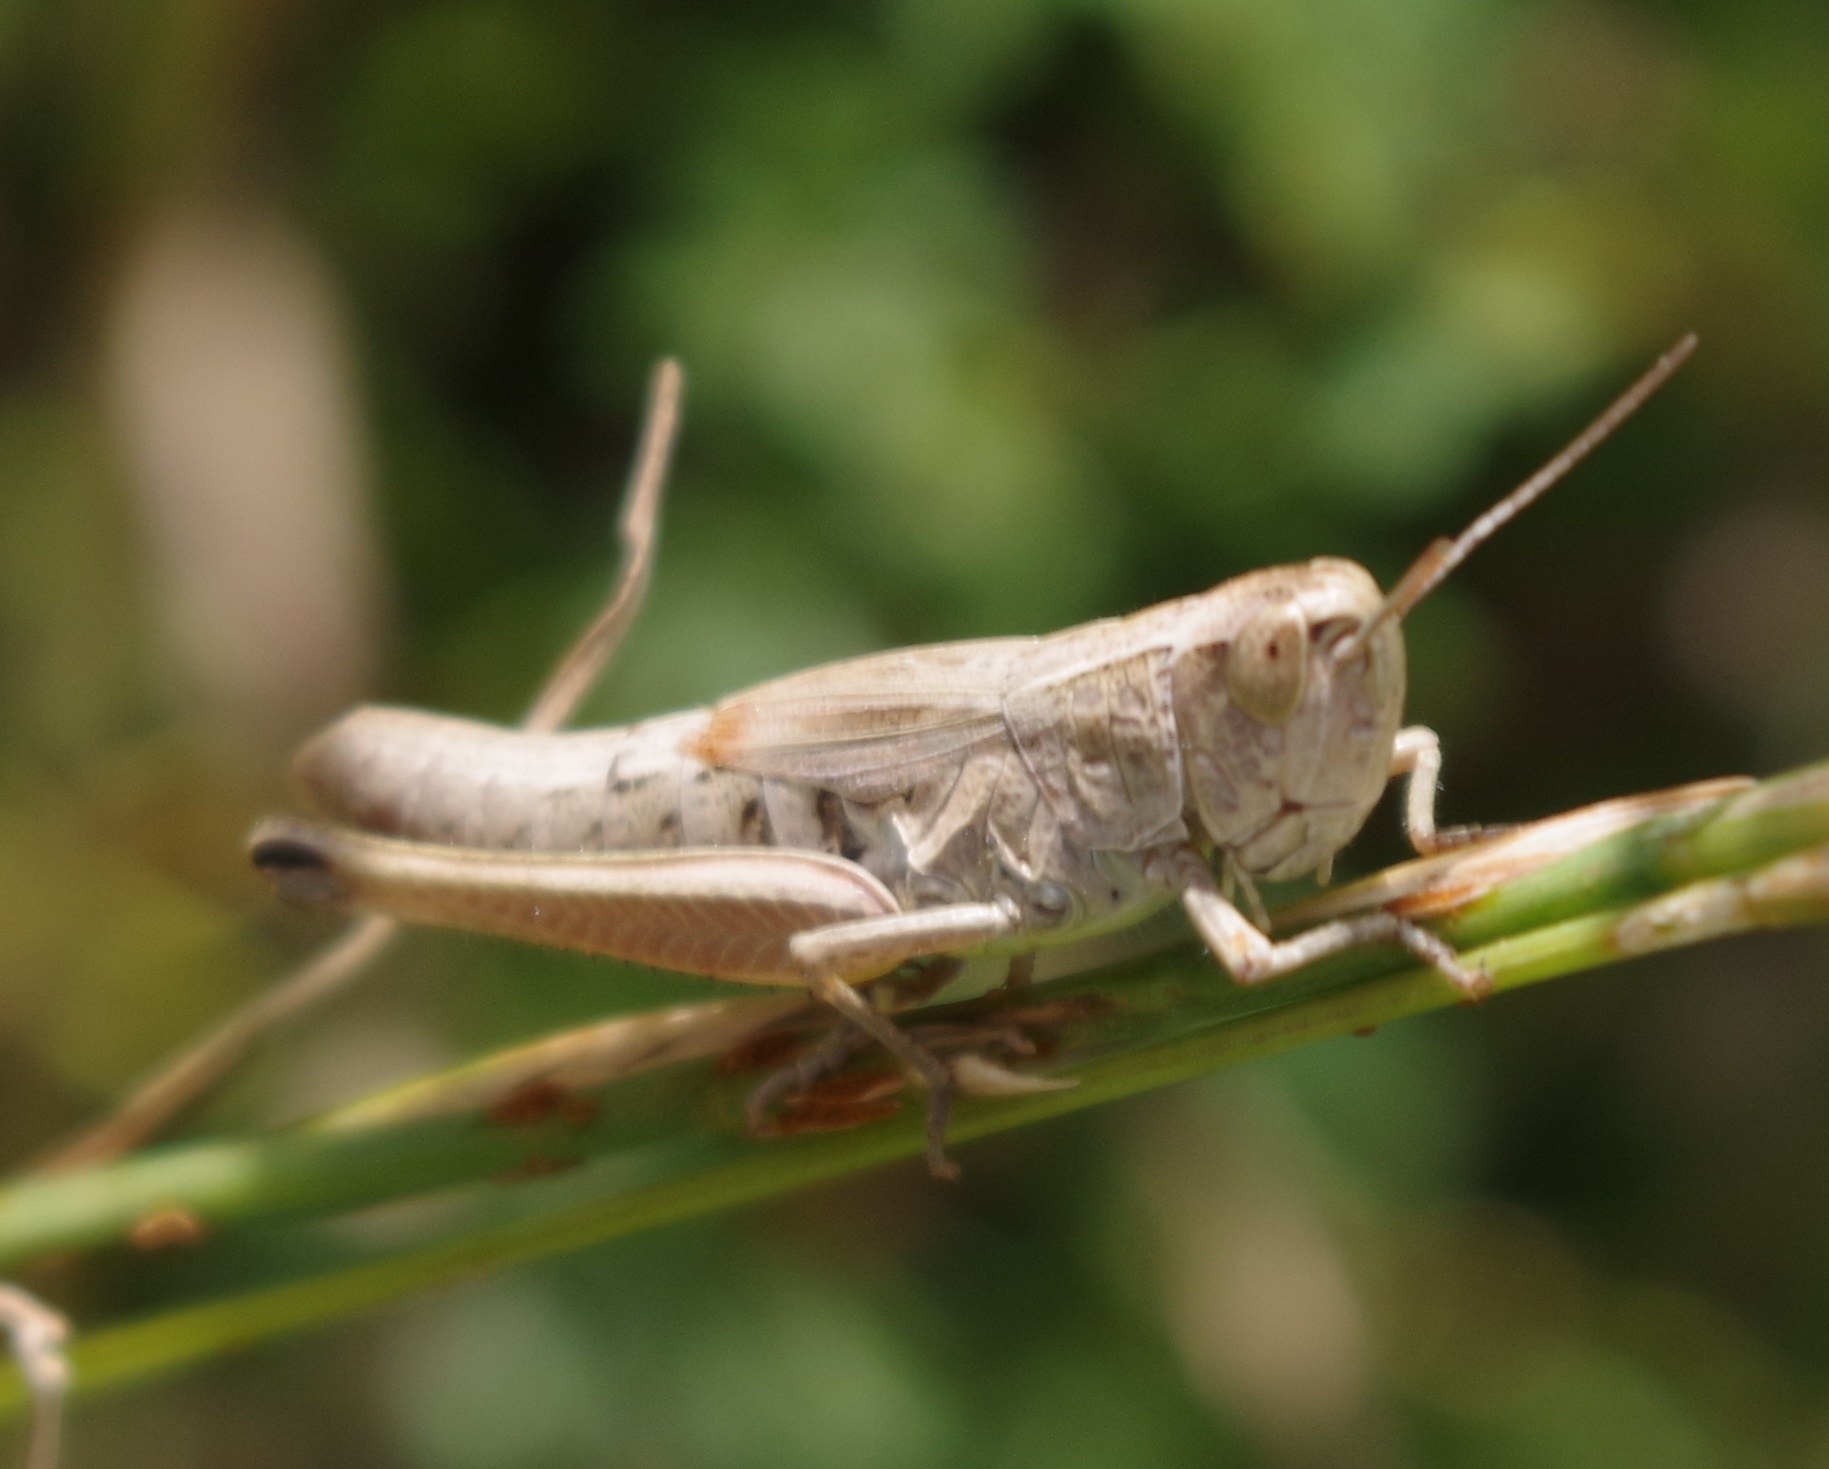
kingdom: Animalia
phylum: Arthropoda
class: Insecta
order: Orthoptera
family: Acrididae
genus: Pseudochorthippus
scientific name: Pseudochorthippus parallelus
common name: Meadow grasshopper
